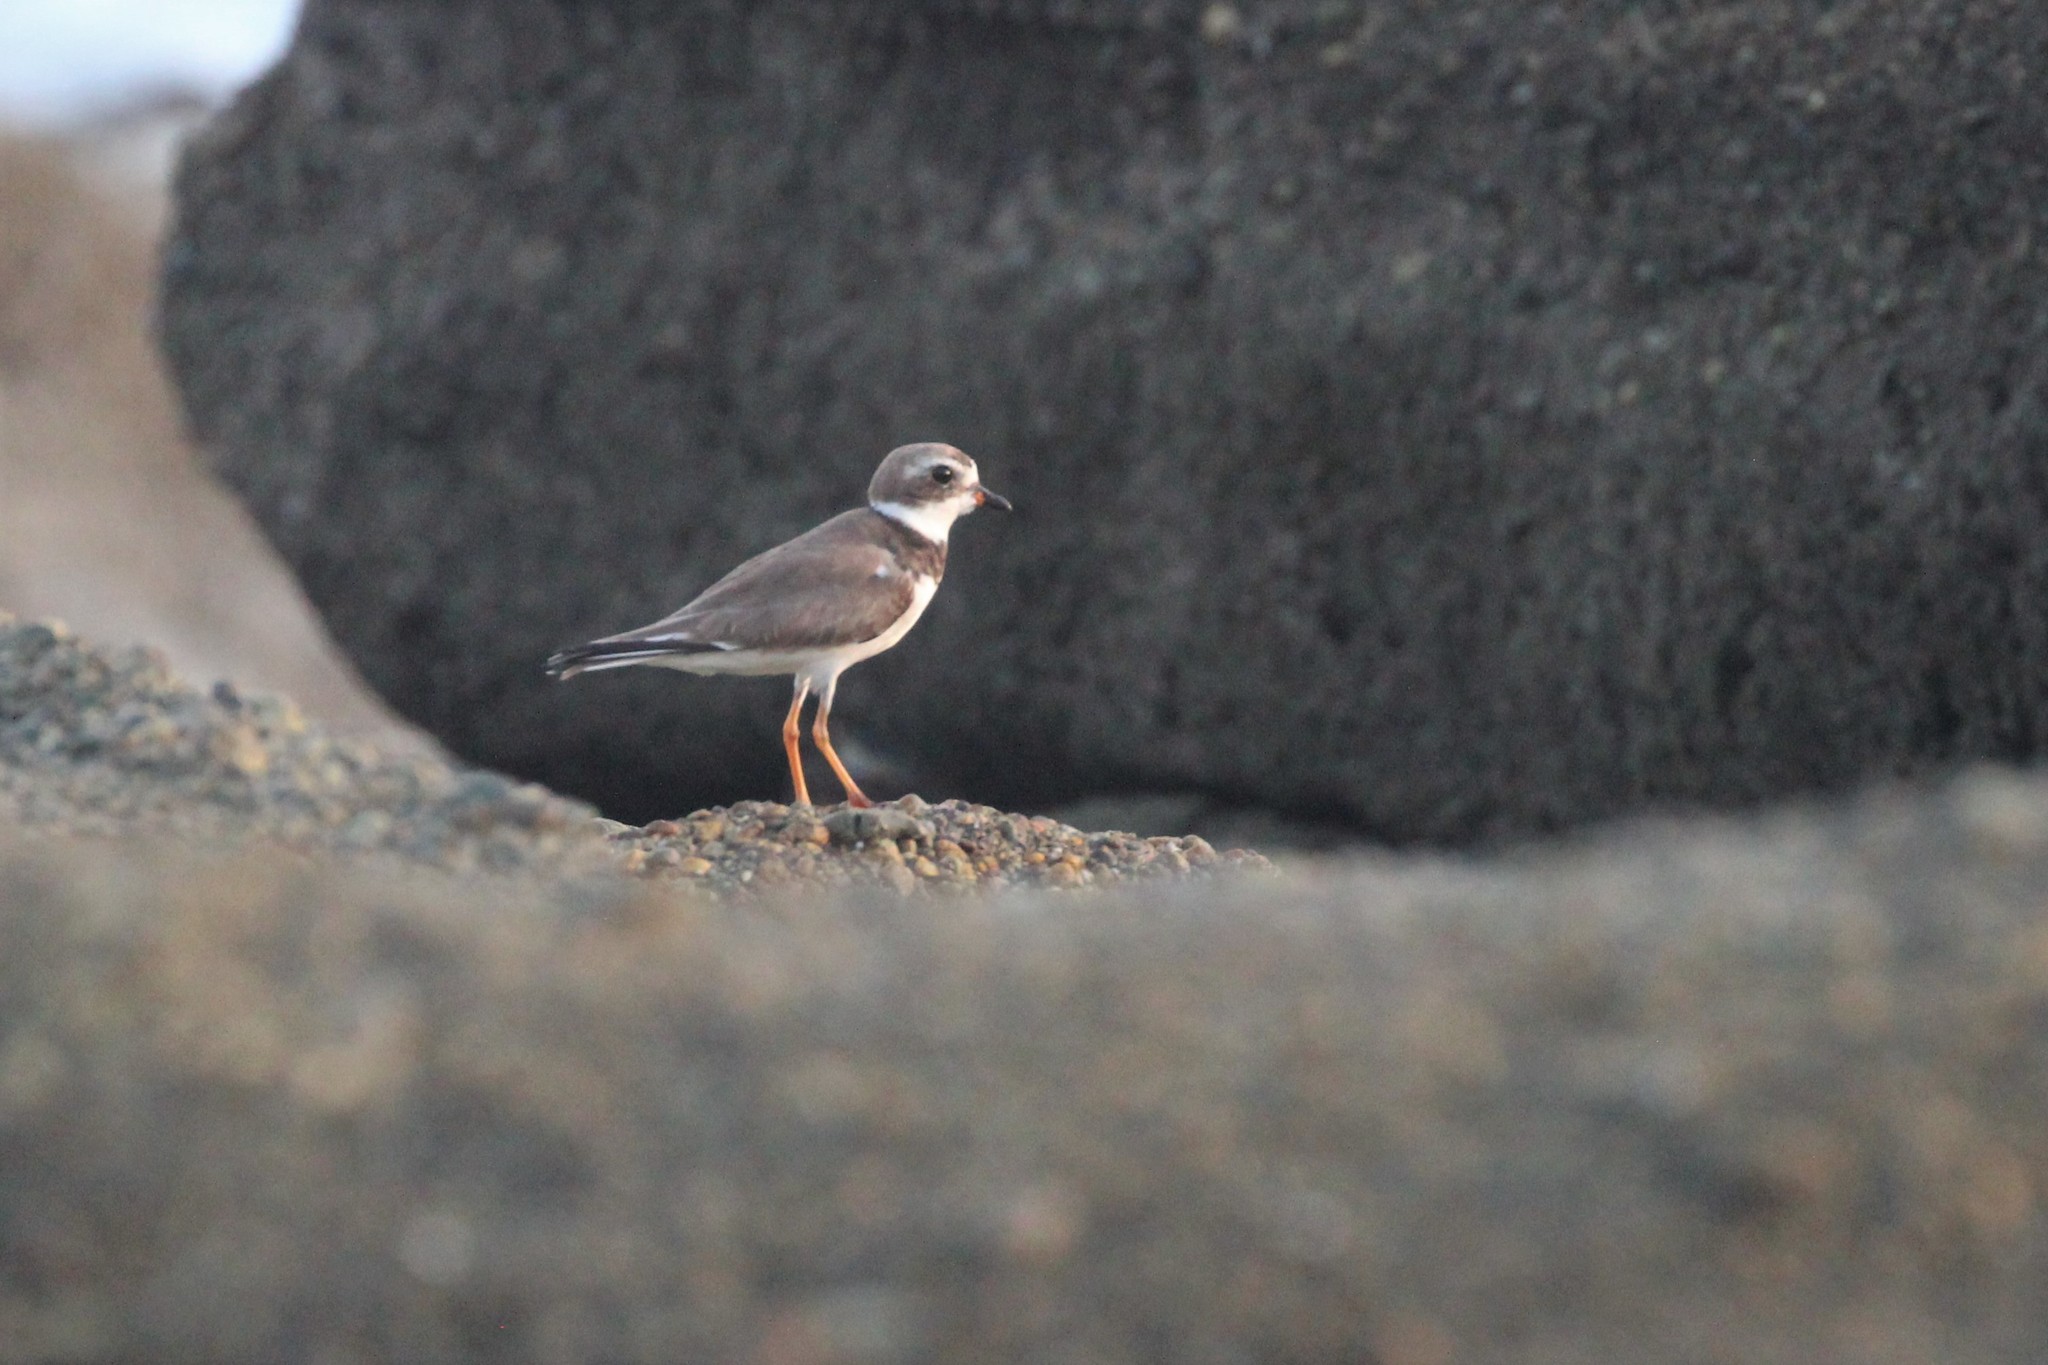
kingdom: Animalia
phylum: Chordata
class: Aves
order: Charadriiformes
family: Charadriidae
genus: Charadrius
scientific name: Charadrius semipalmatus
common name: Semipalmated plover
